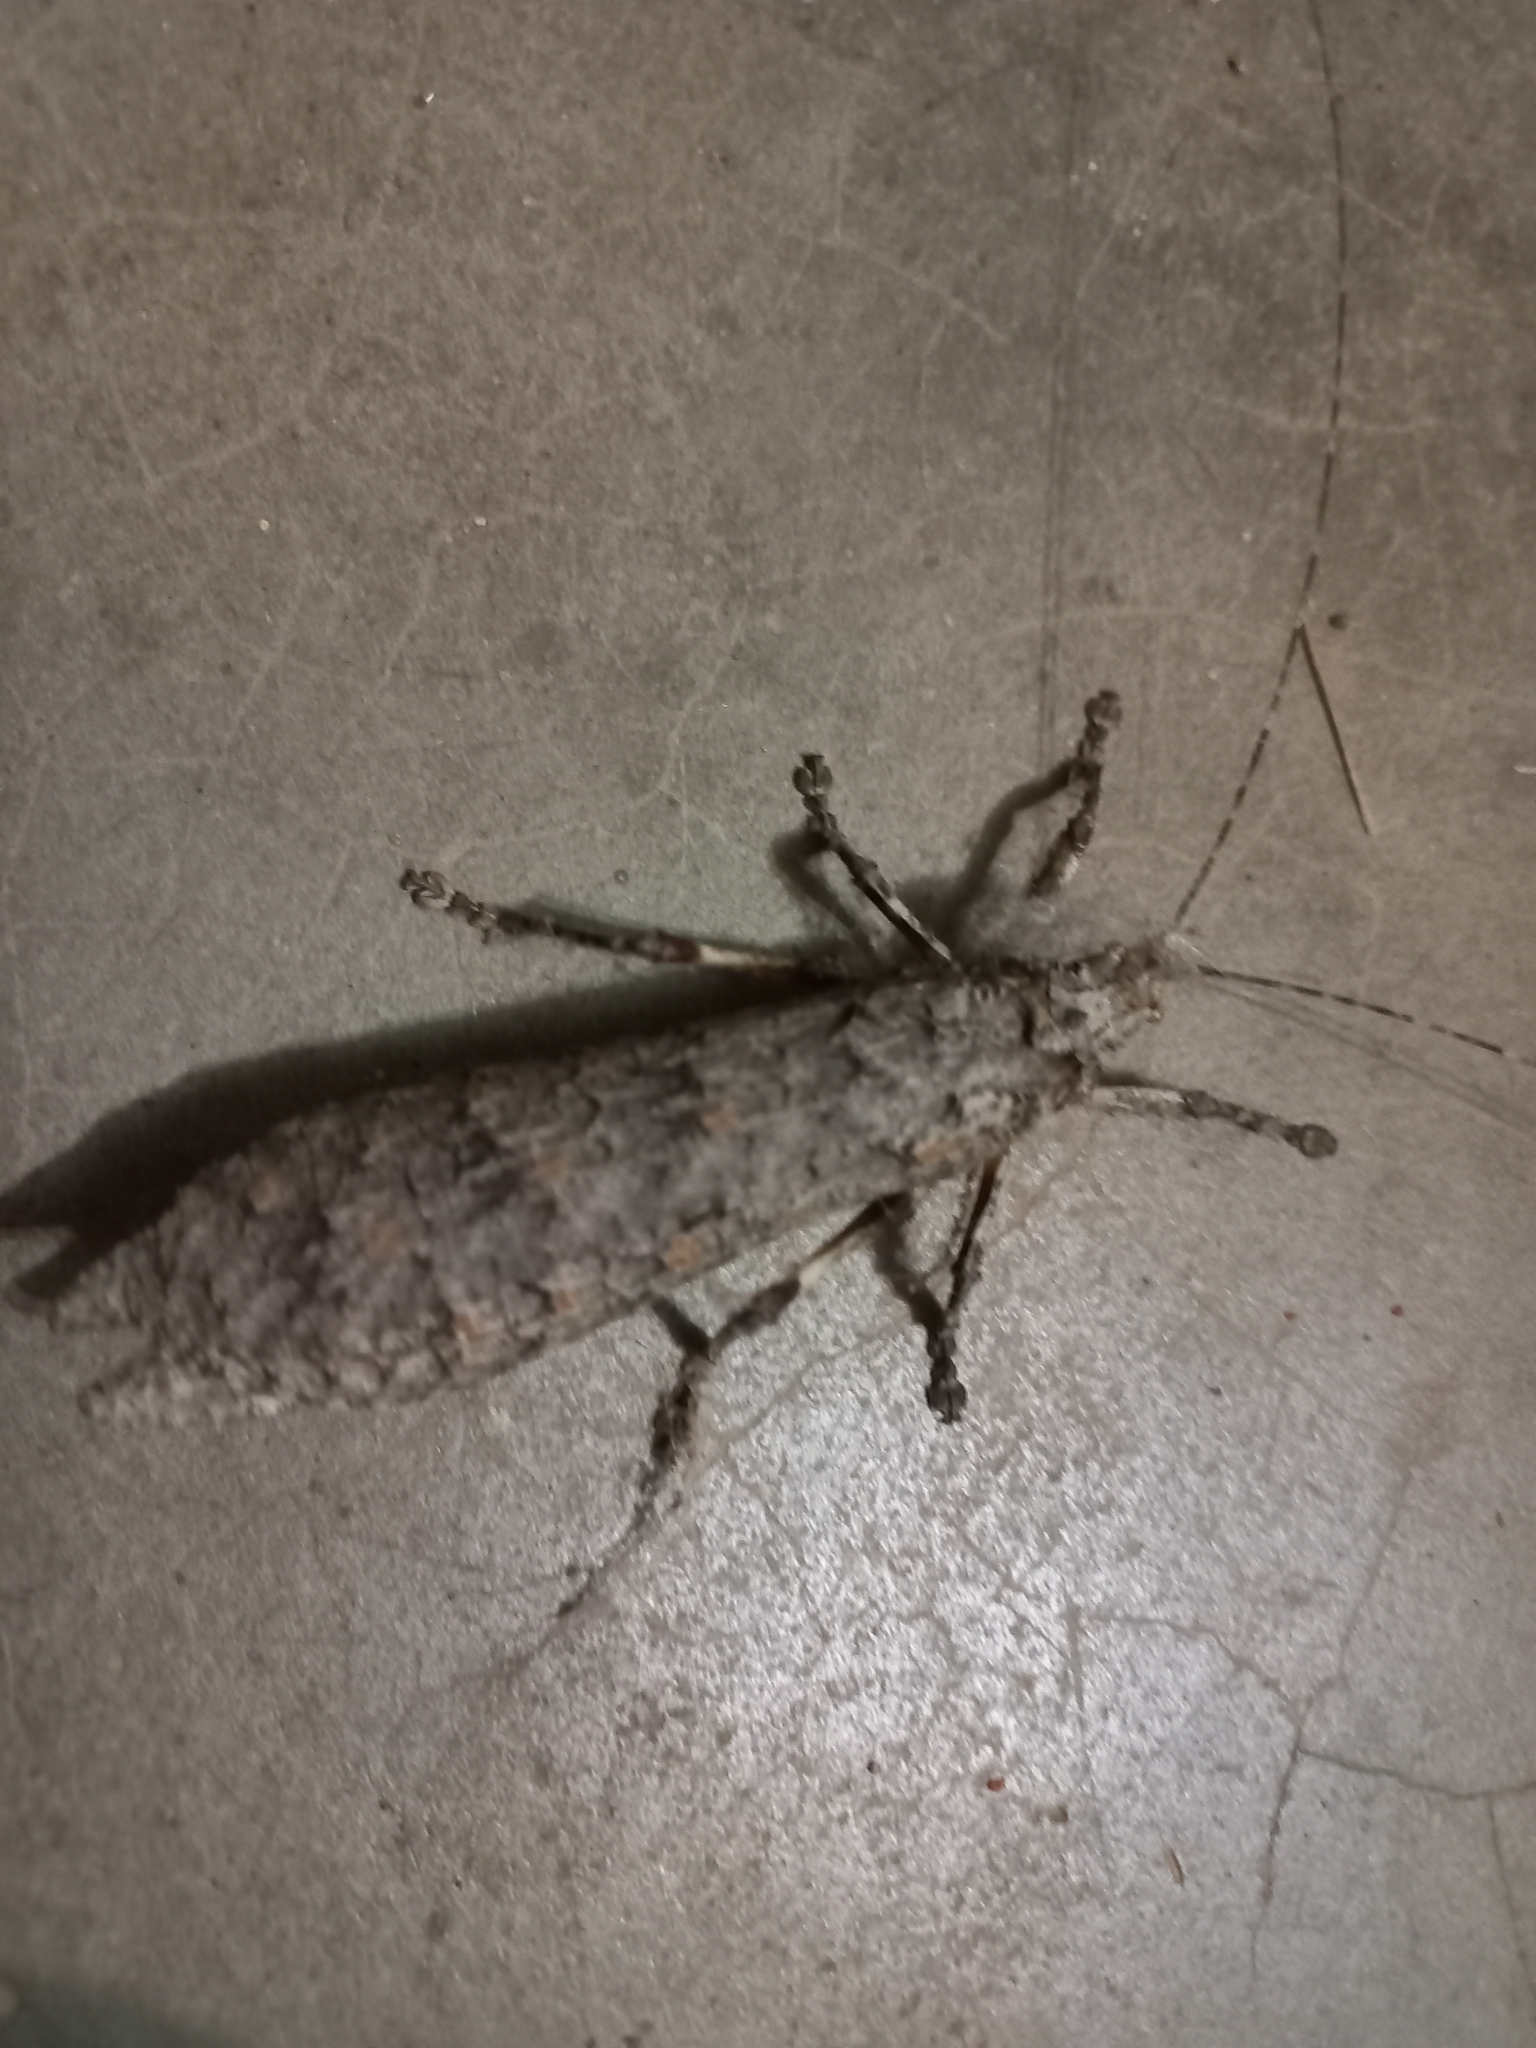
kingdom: Animalia
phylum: Arthropoda
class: Insecta
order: Orthoptera
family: Tettigoniidae
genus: Cymatomera
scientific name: Cymatomera denticollis
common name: Common bark katydid
